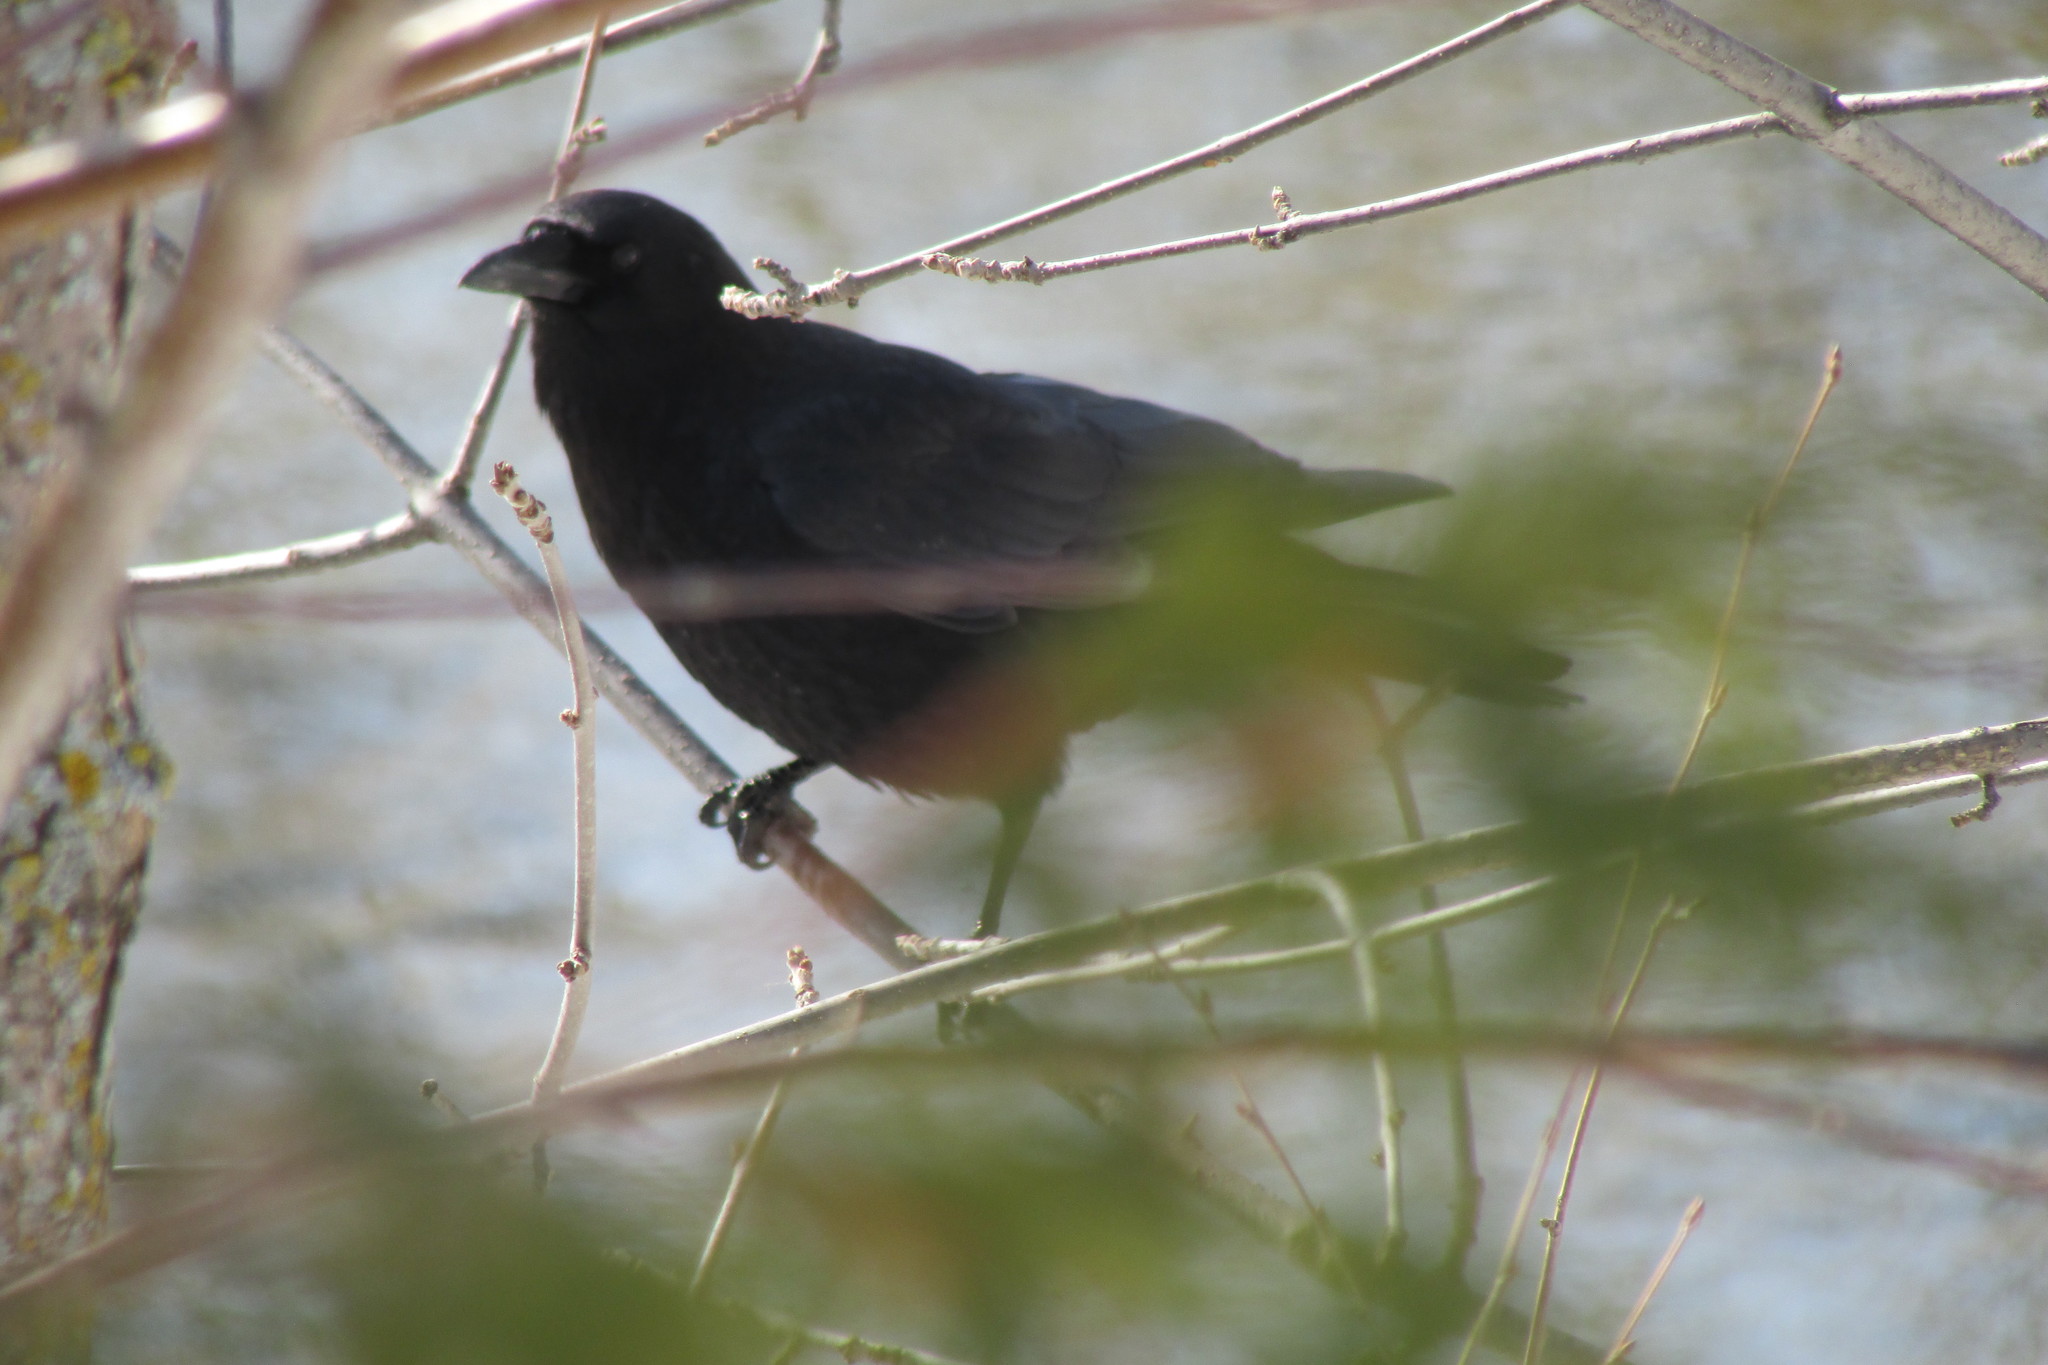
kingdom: Animalia
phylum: Chordata
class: Aves
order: Passeriformes
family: Corvidae
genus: Corvus
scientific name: Corvus brachyrhynchos
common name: American crow
